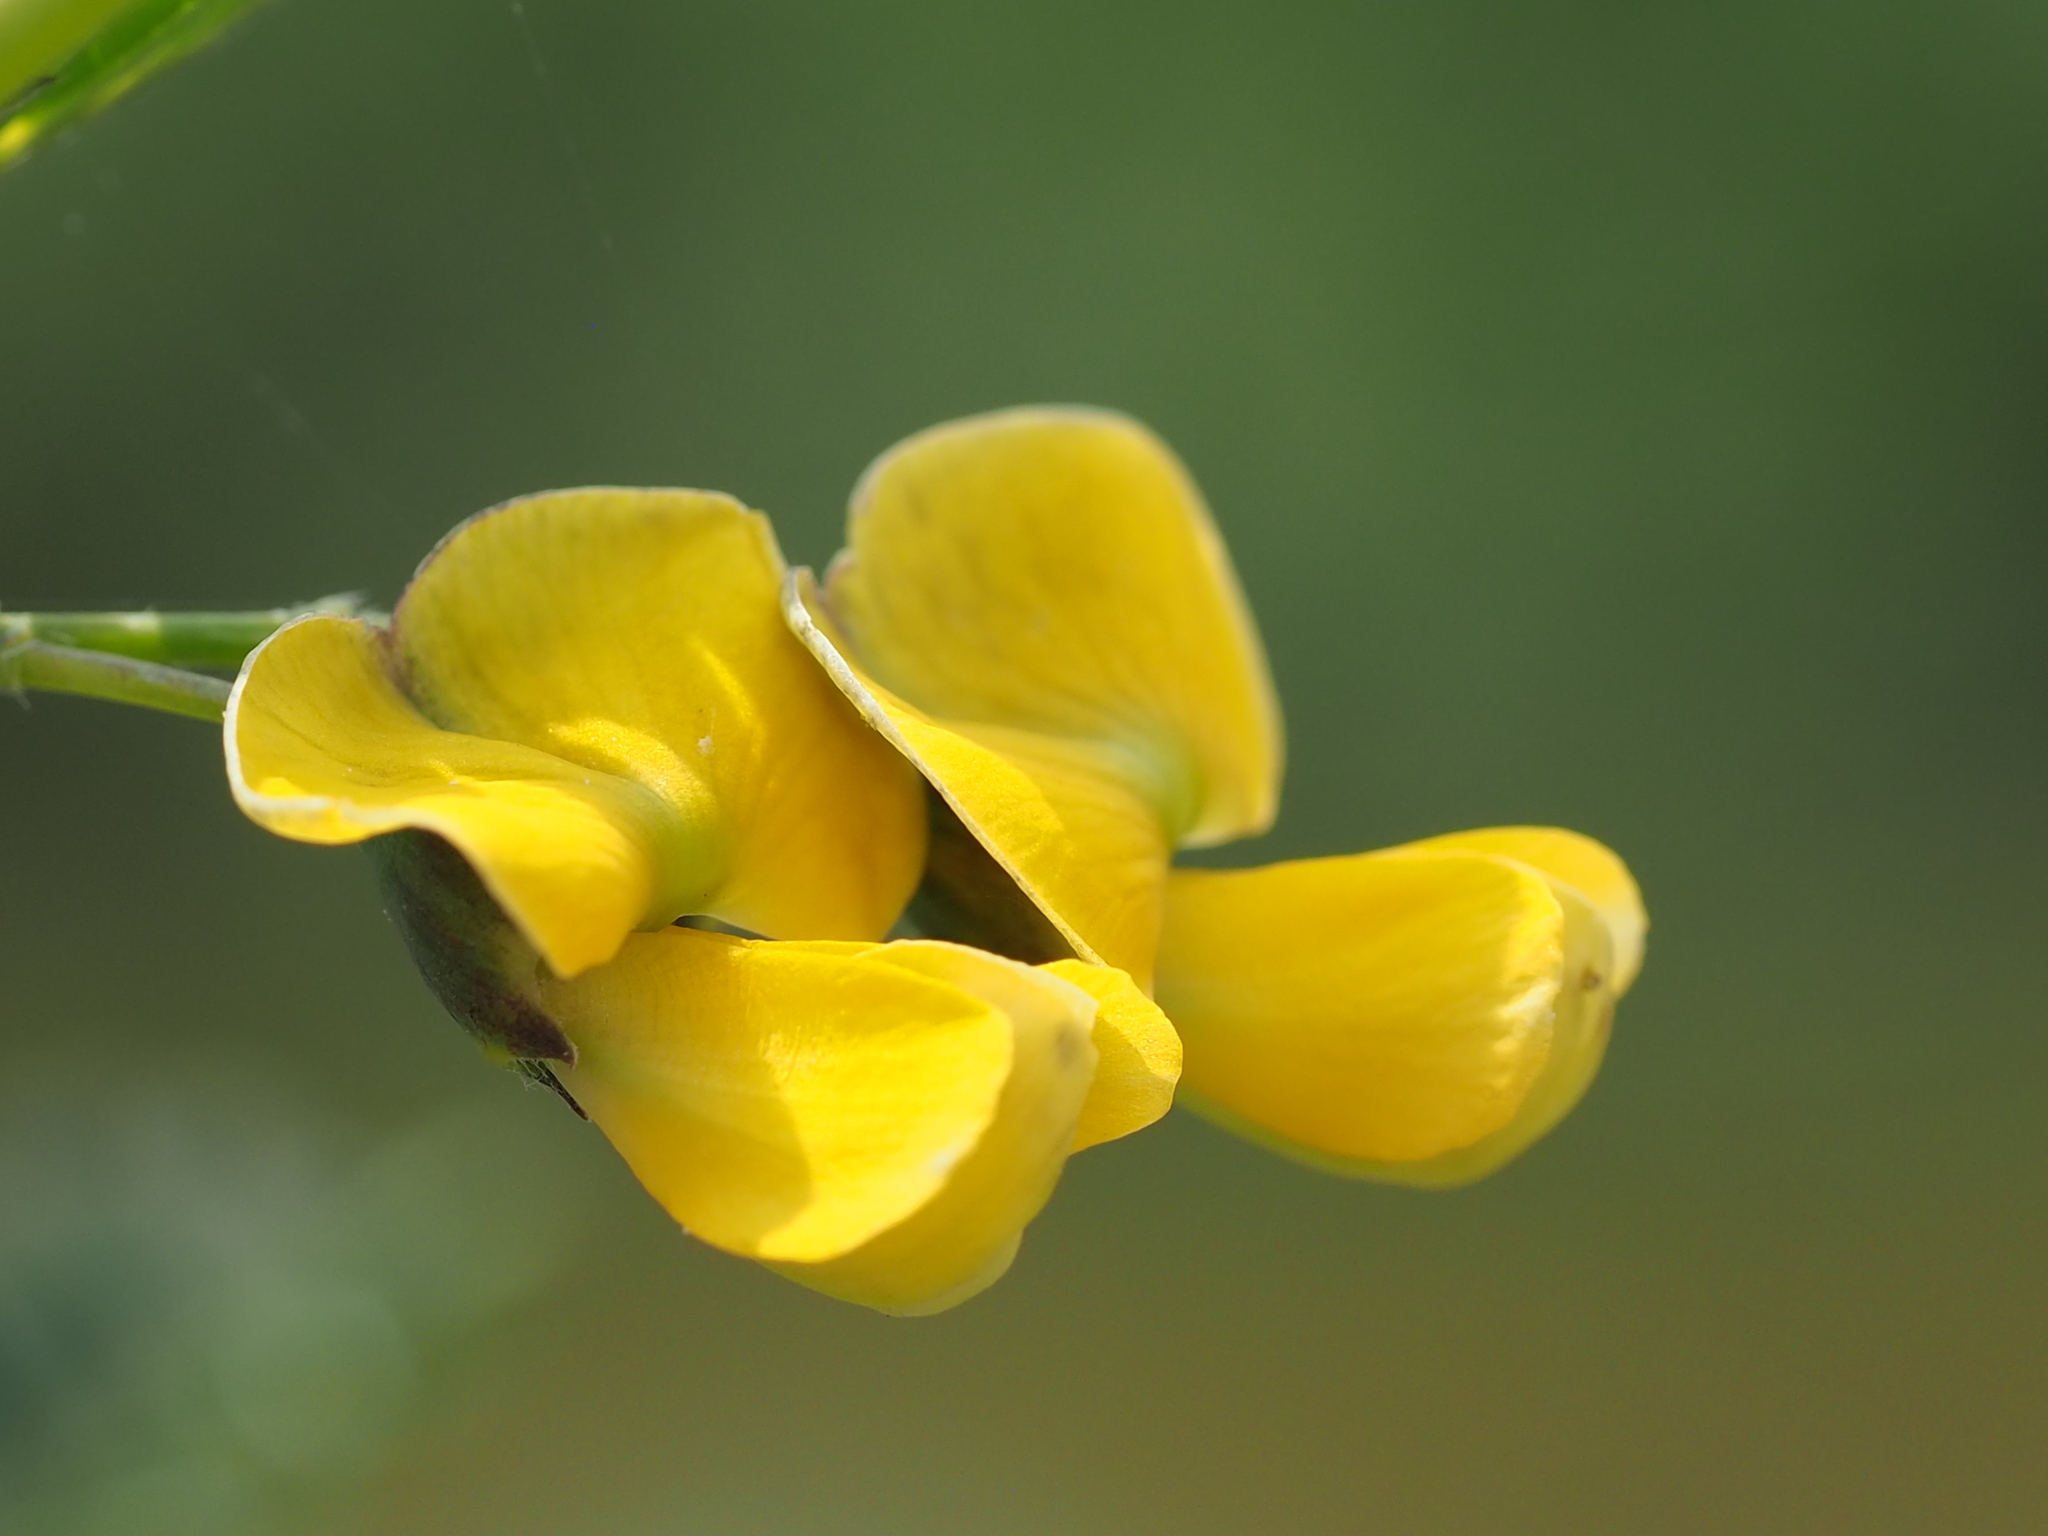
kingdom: Plantae
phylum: Tracheophyta
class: Magnoliopsida
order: Fabales
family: Fabaceae
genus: Sesbania
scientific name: Sesbania cannabina
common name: Canicha
